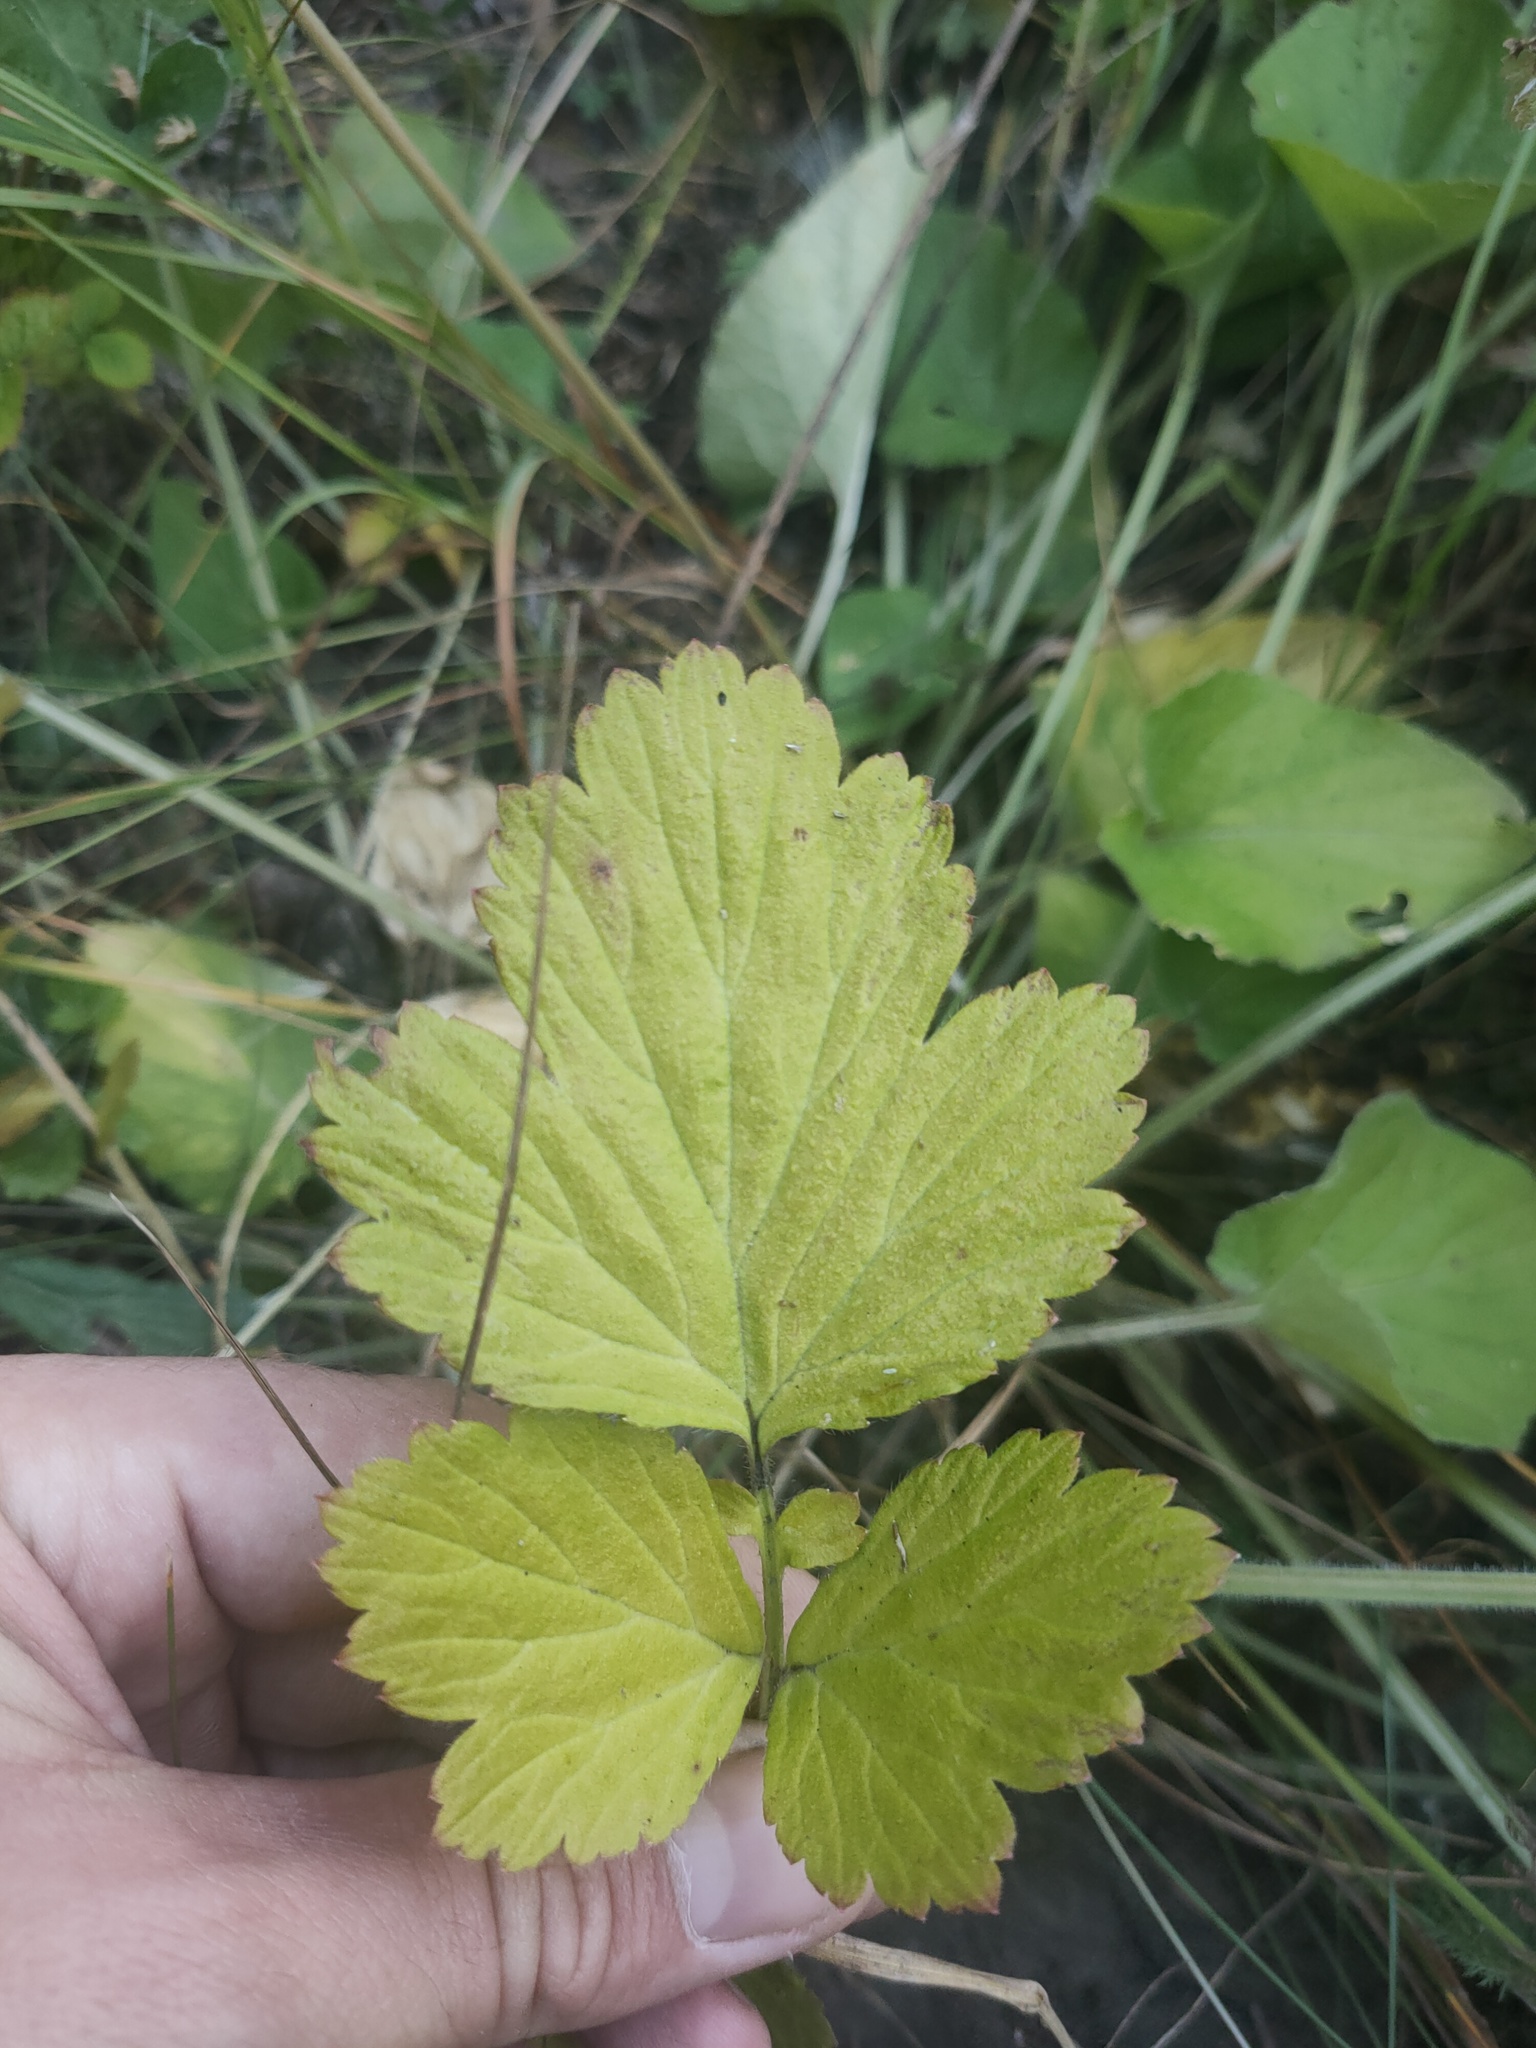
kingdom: Plantae
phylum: Tracheophyta
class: Magnoliopsida
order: Rosales
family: Rosaceae
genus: Geum
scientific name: Geum
